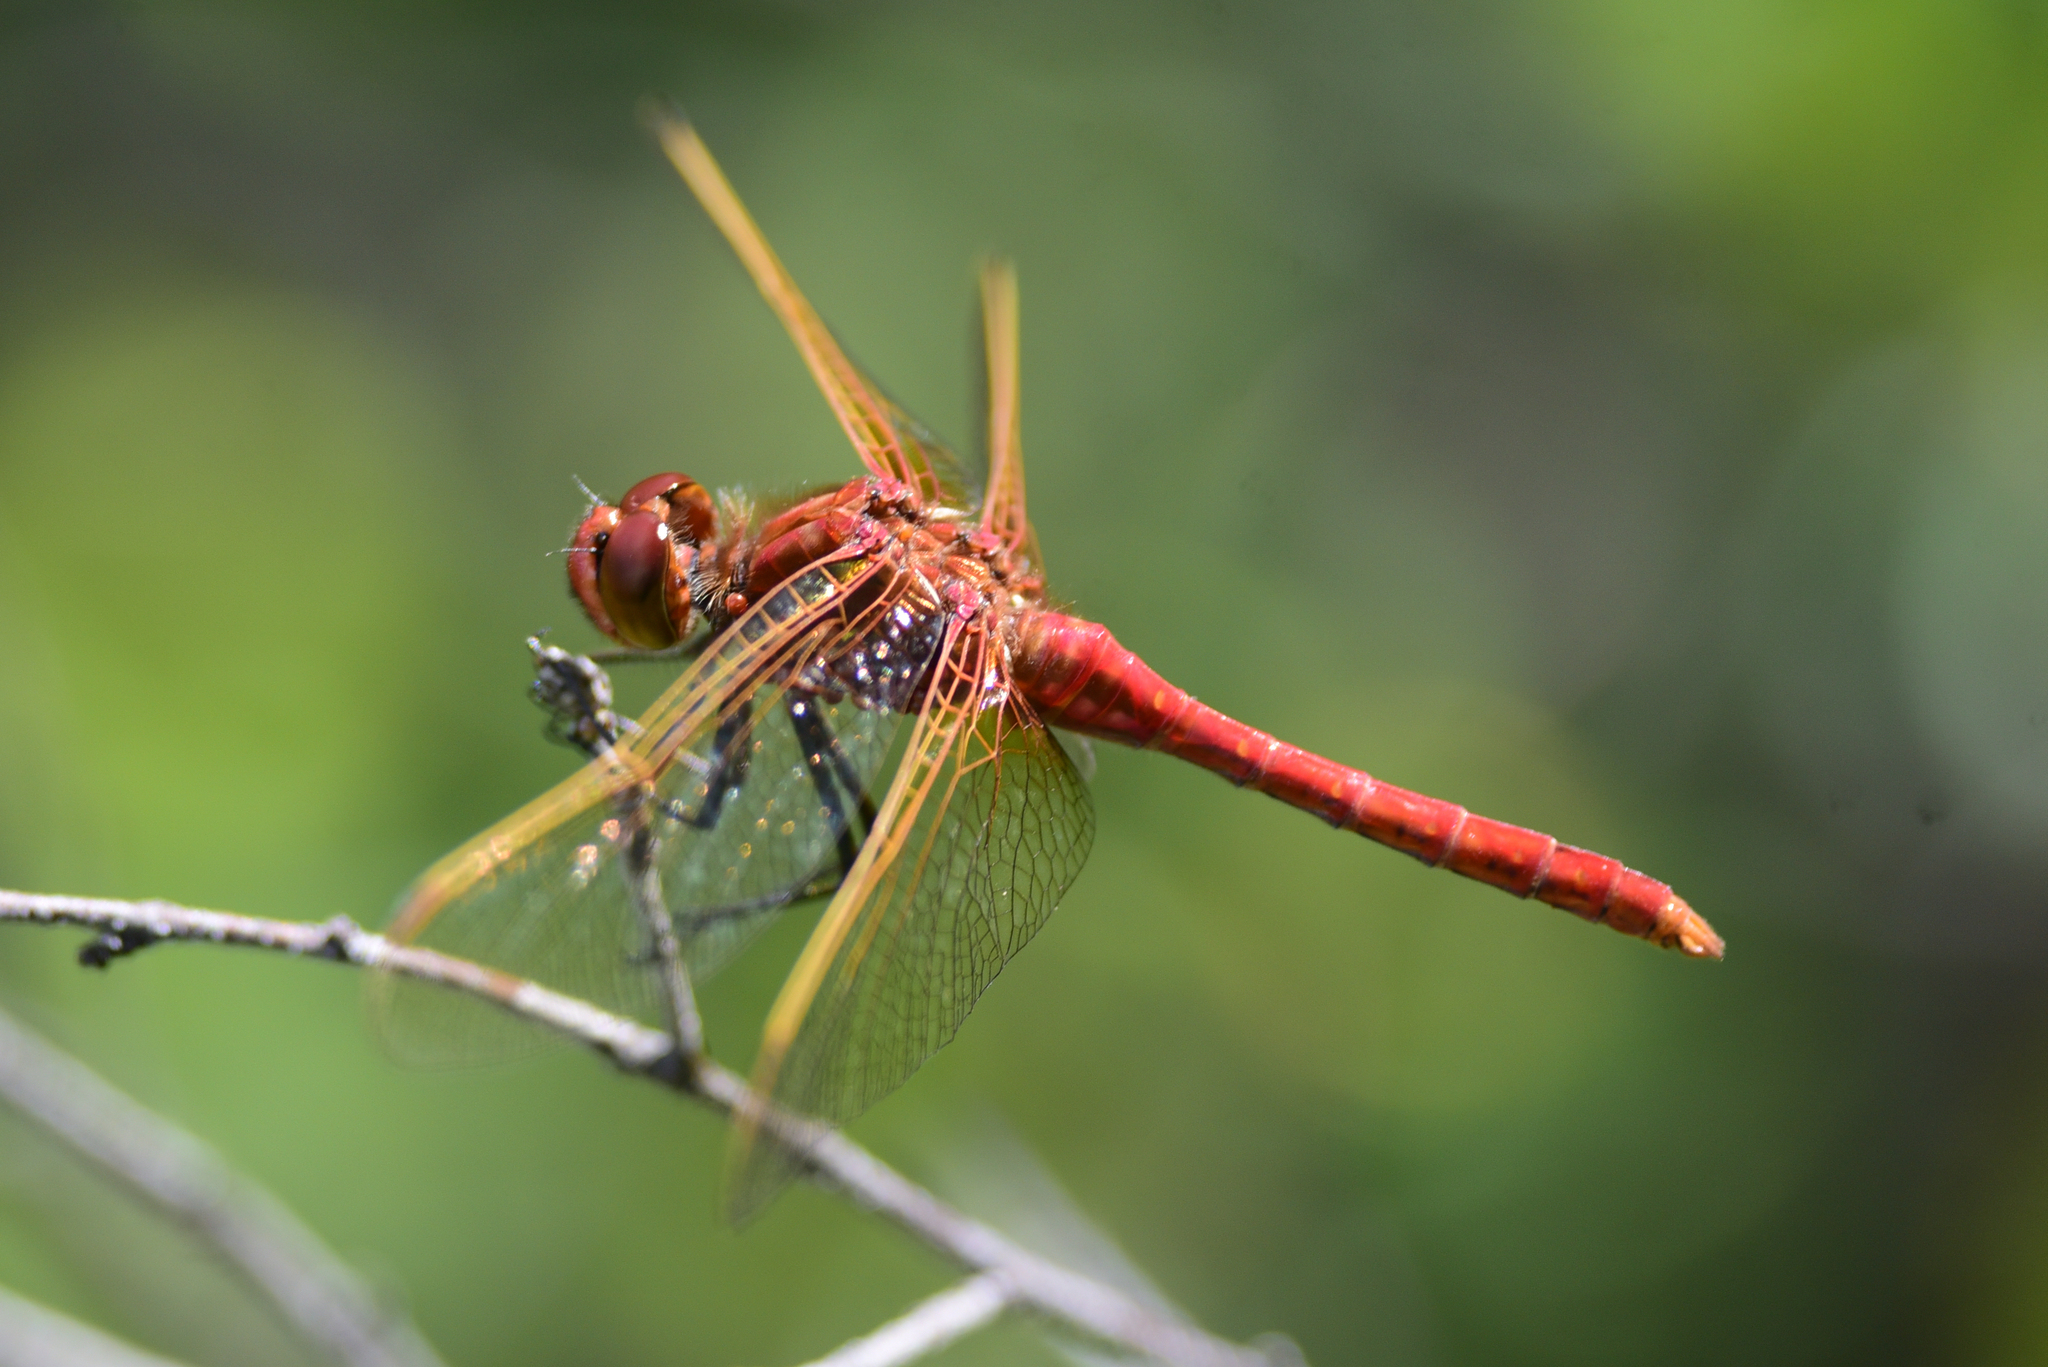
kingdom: Animalia
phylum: Arthropoda
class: Insecta
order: Odonata
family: Libellulidae
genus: Sympetrum
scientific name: Sympetrum madidum
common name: Red-veined meadowhawk
